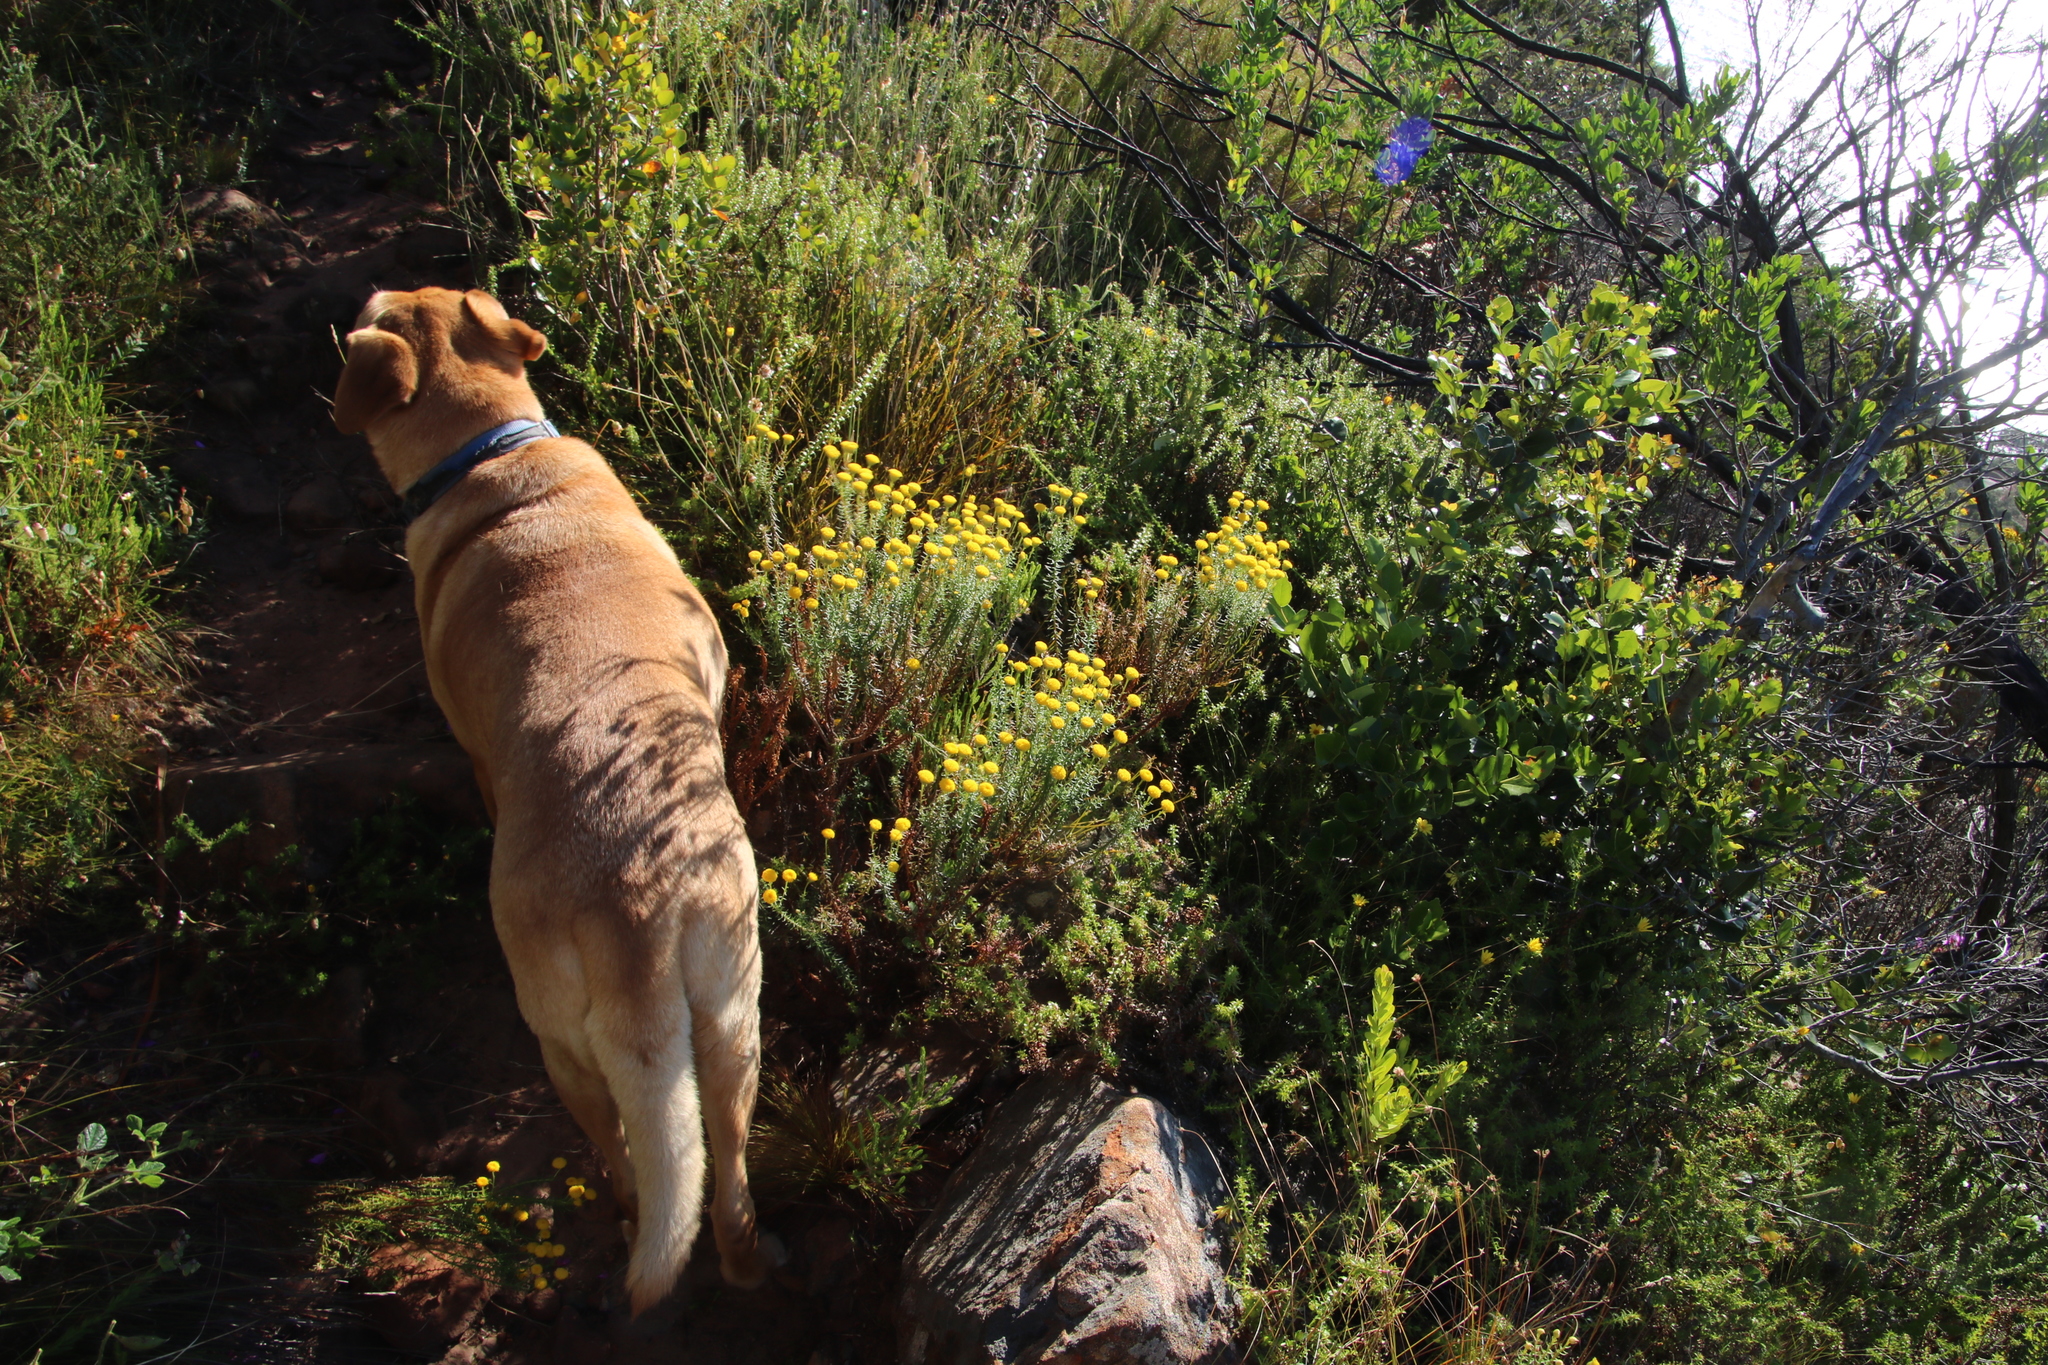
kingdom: Plantae
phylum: Tracheophyta
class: Magnoliopsida
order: Asterales
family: Asteraceae
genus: Chrysocoma
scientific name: Chrysocoma cernua
